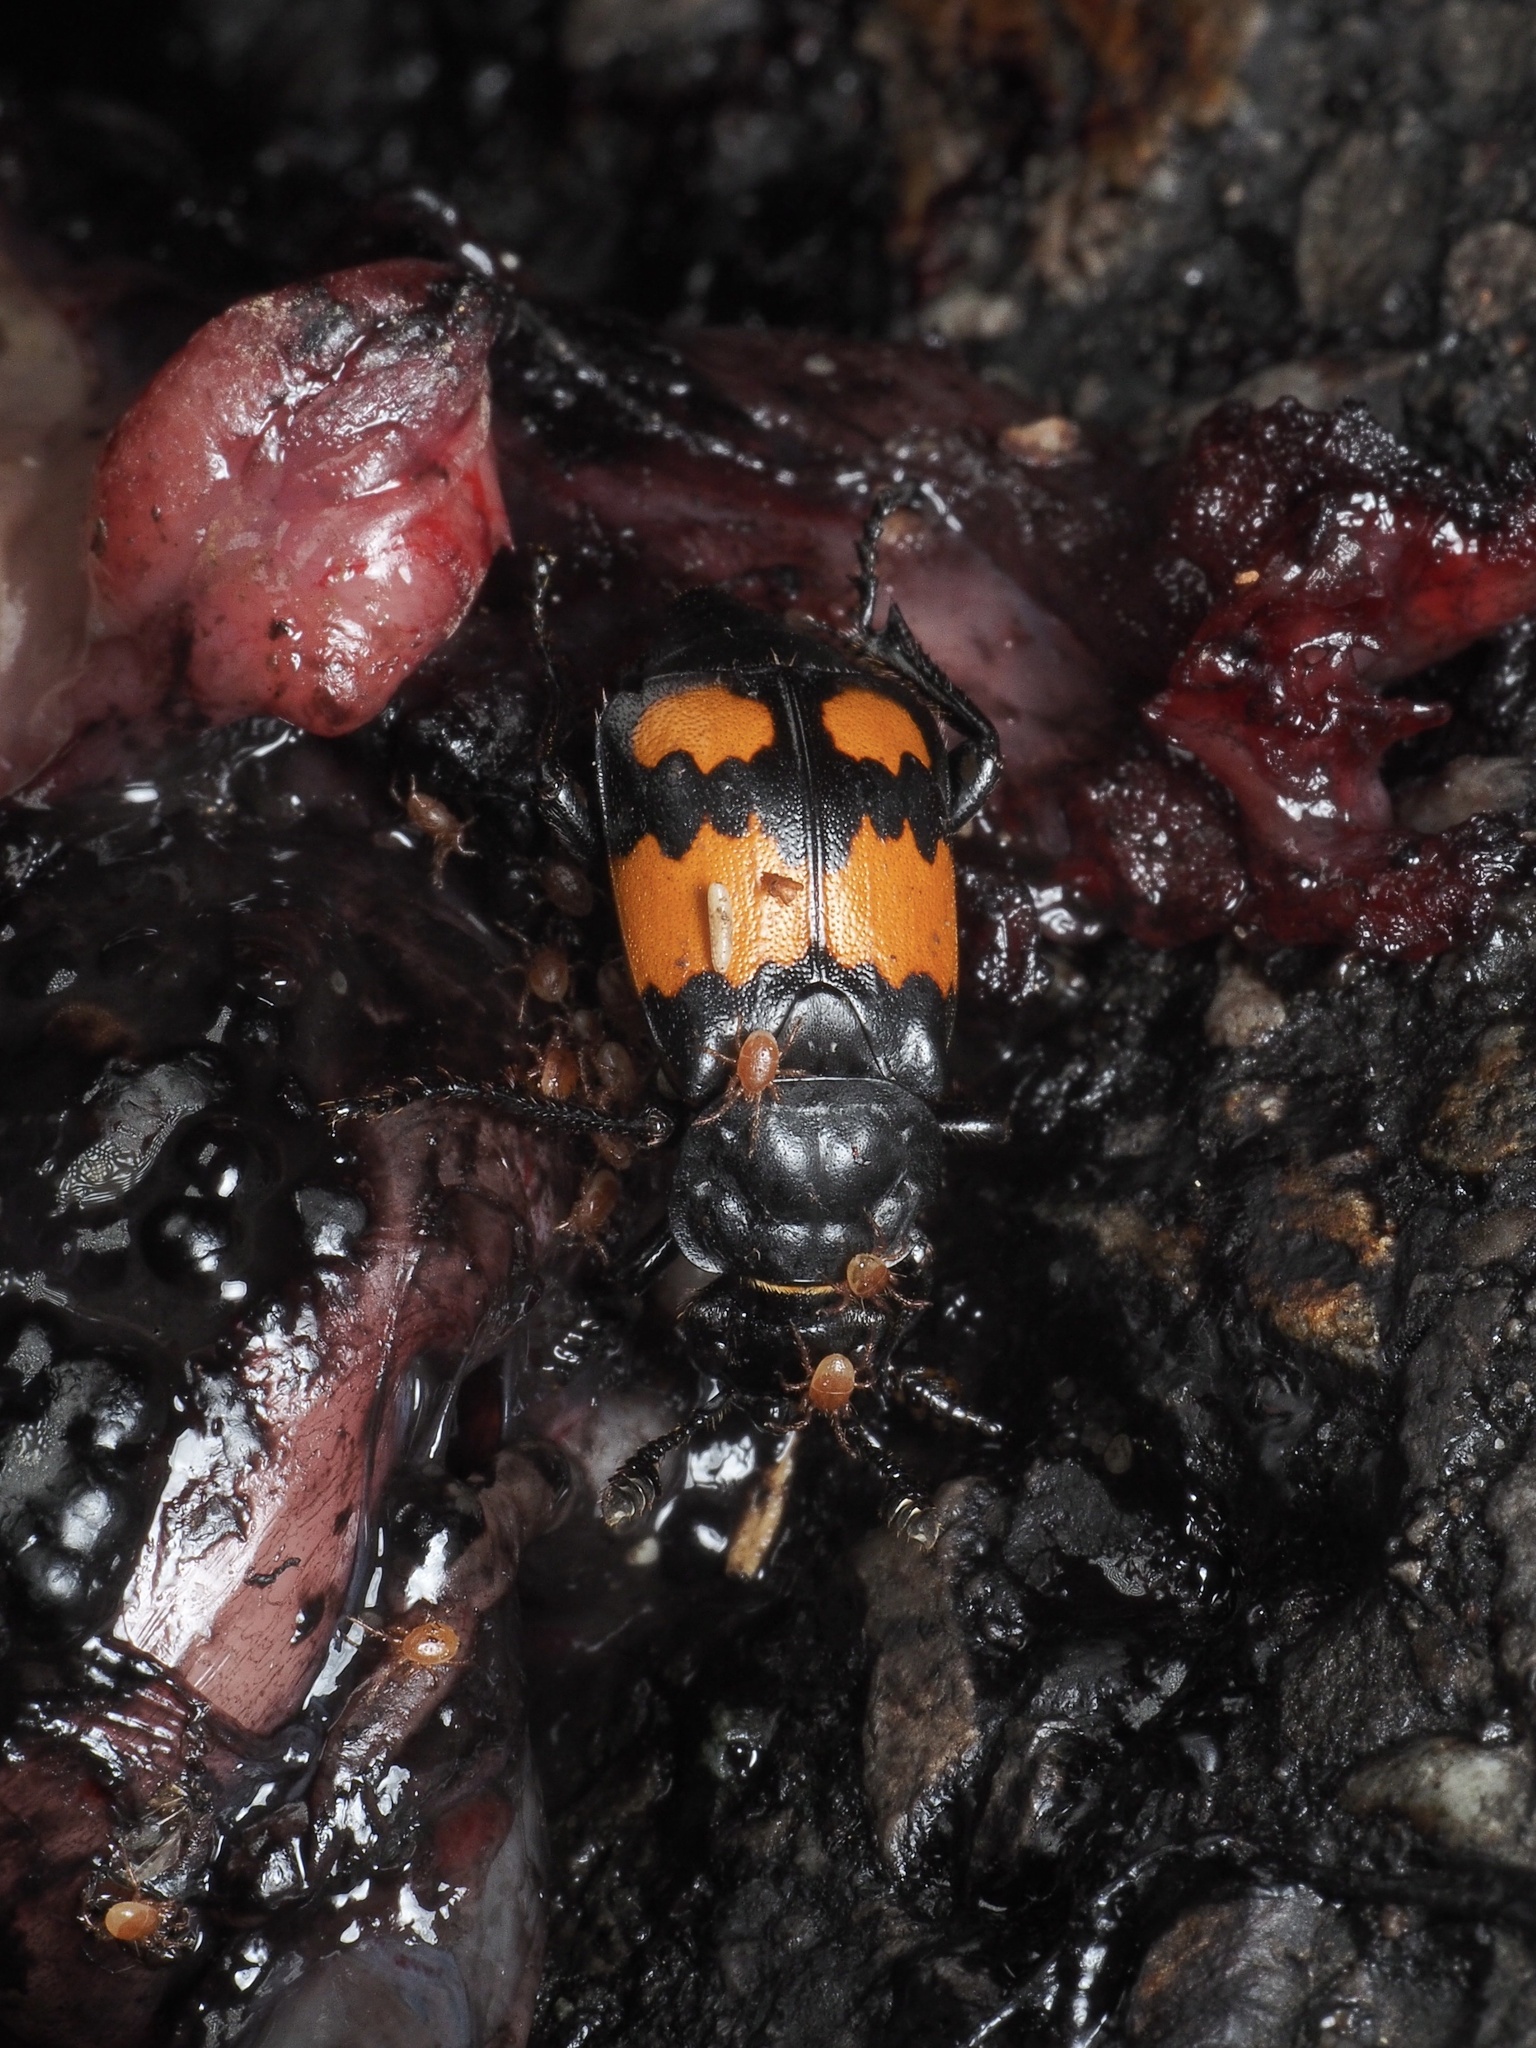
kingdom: Animalia
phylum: Arthropoda
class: Insecta
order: Coleoptera
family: Staphylinidae
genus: Nicrophorus
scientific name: Nicrophorus vespilloides
